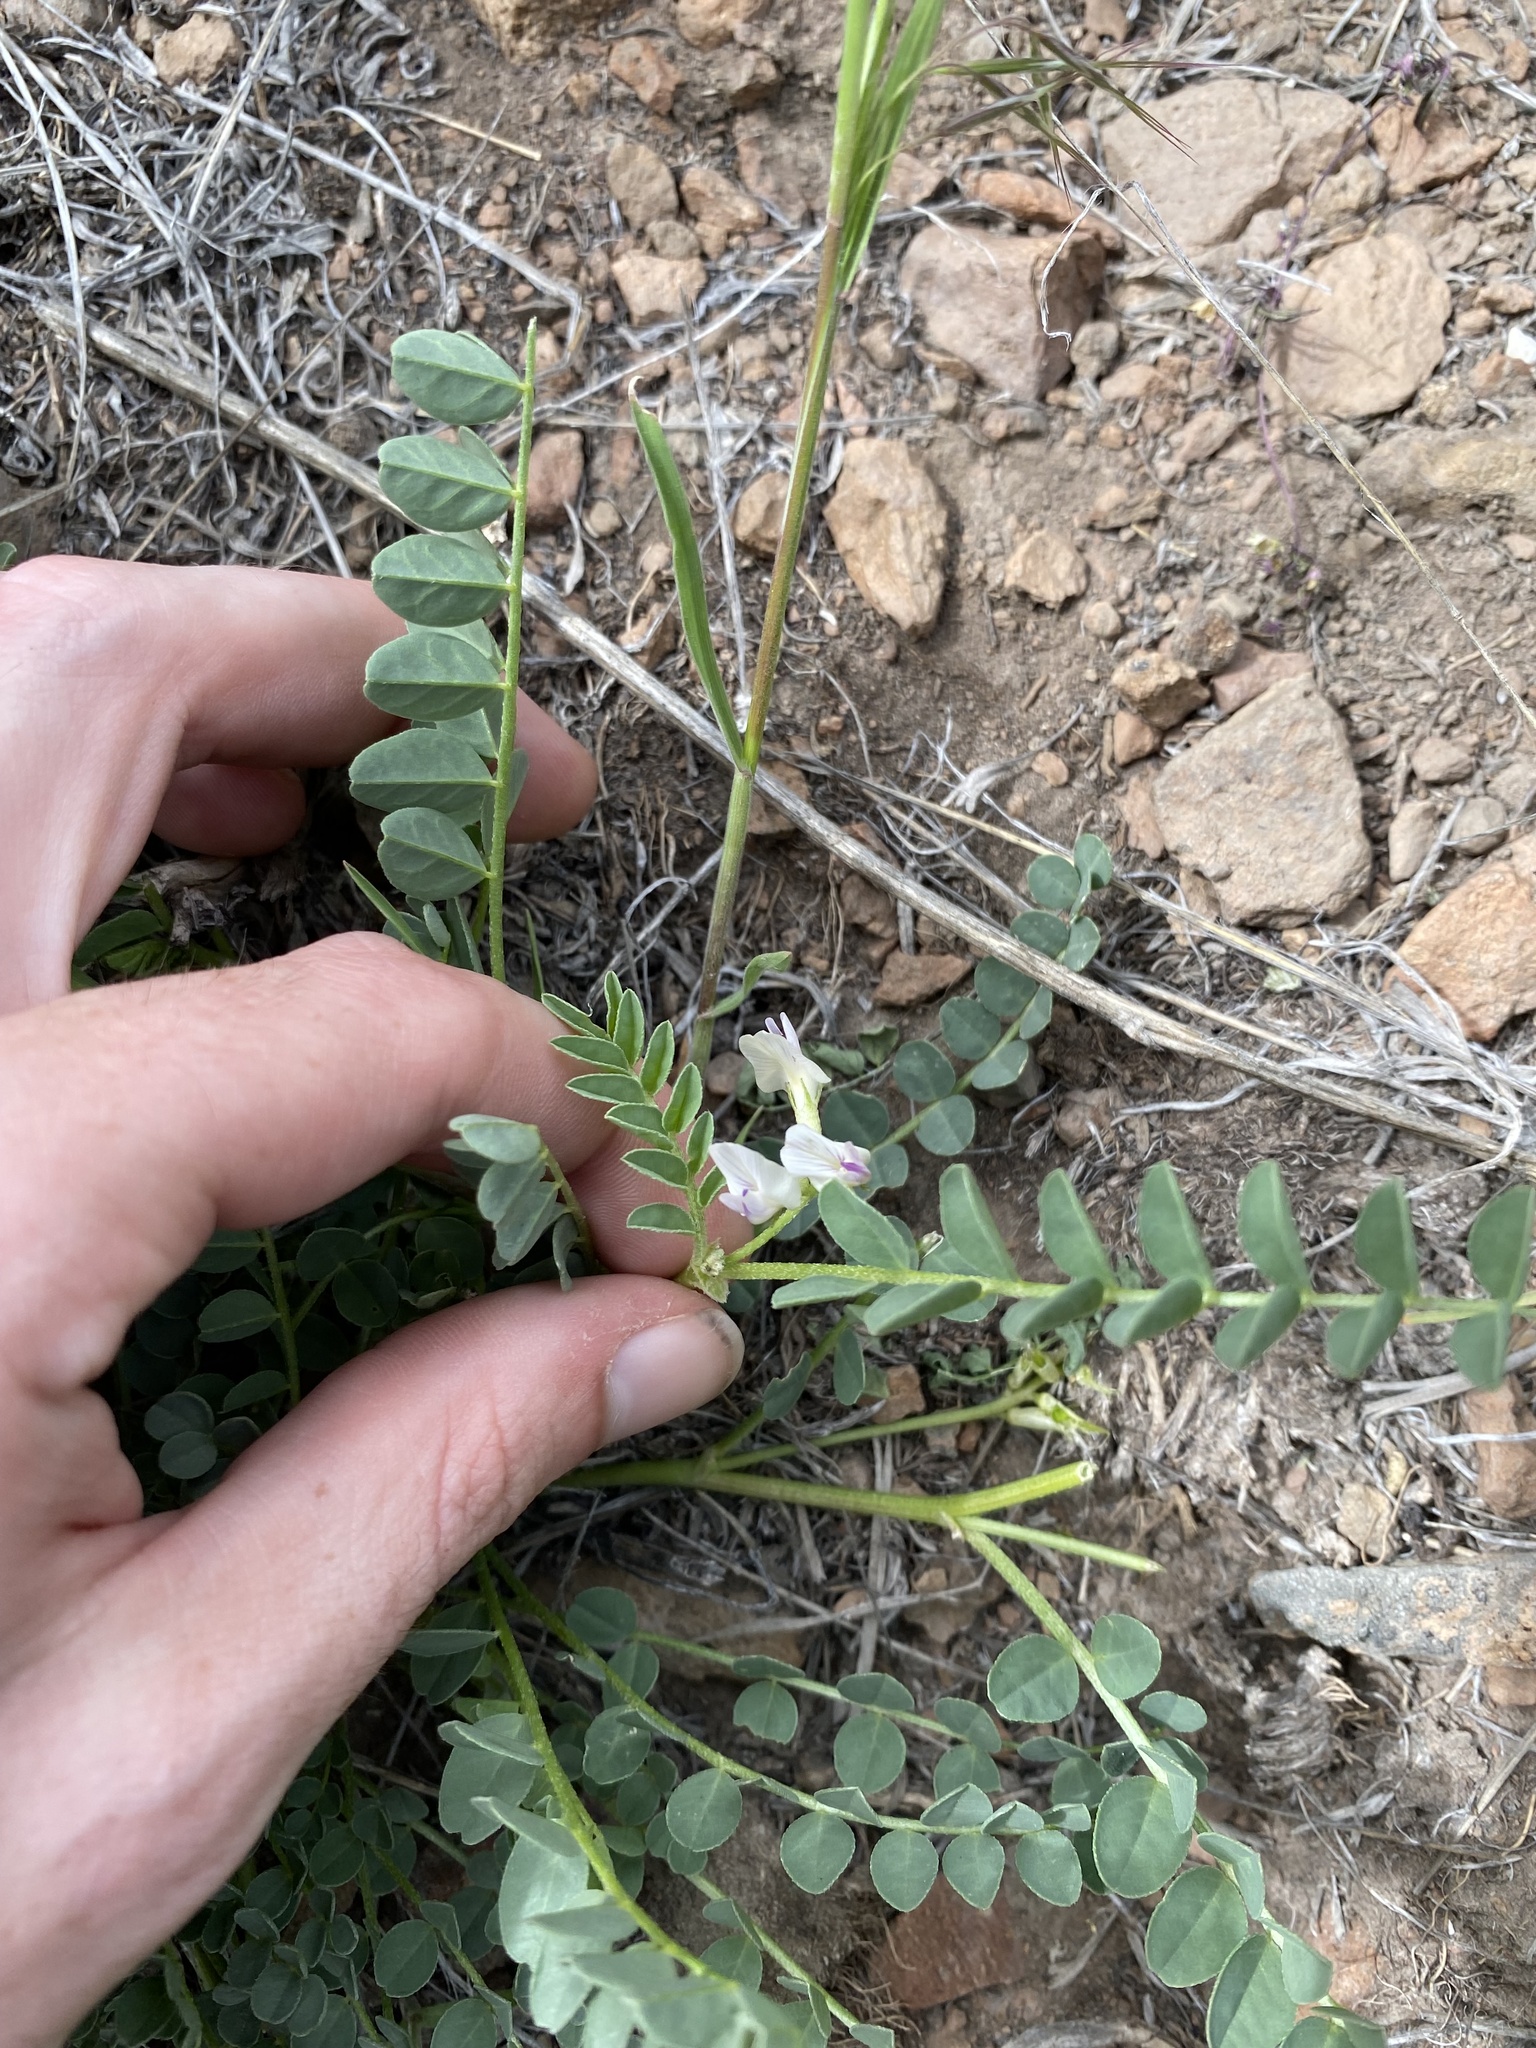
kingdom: Plantae
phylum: Tracheophyta
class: Magnoliopsida
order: Fabales
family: Fabaceae
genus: Astragalus
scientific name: Astragalus lentiginosus
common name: Freckled milkvetch
